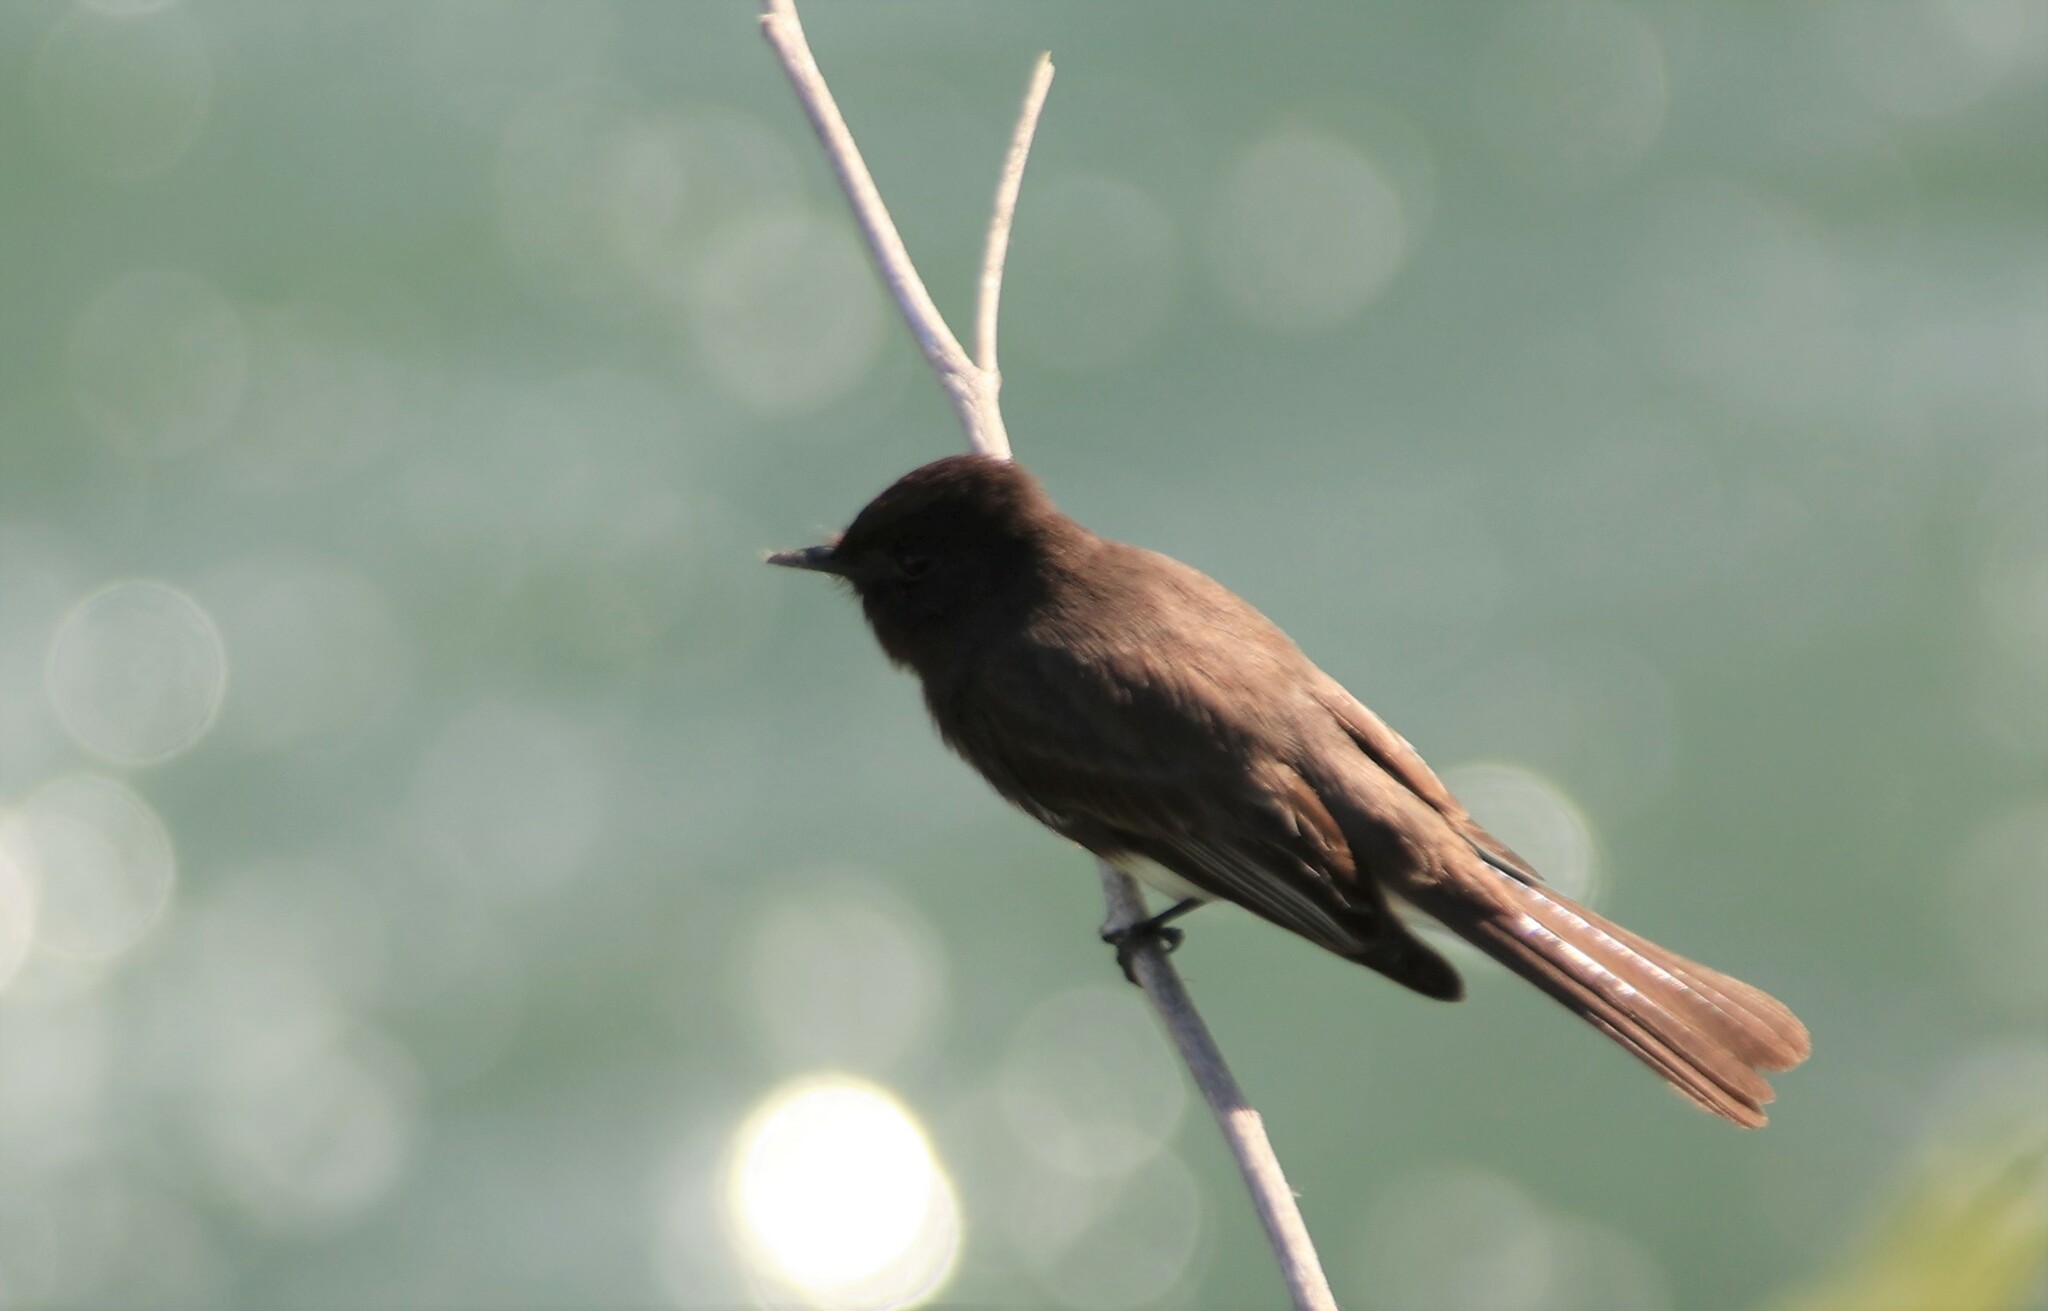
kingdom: Animalia
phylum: Chordata
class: Aves
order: Passeriformes
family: Tyrannidae
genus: Sayornis
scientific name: Sayornis nigricans
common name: Black phoebe
